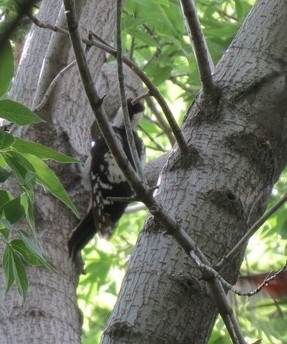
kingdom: Animalia
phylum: Chordata
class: Aves
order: Piciformes
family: Picidae
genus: Dendrocopos
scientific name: Dendrocopos major
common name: Great spotted woodpecker
